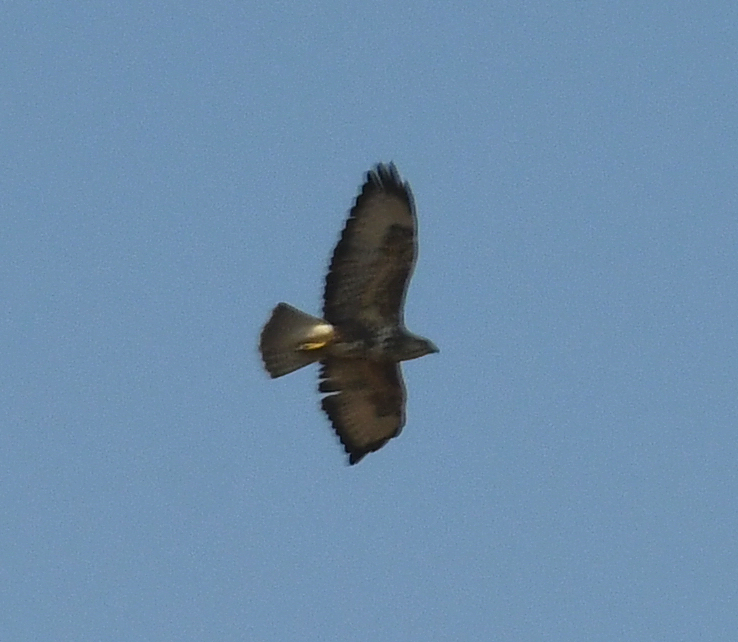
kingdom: Animalia
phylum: Chordata
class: Aves
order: Accipitriformes
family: Accipitridae
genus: Buteo
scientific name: Buteo buteo
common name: Common buzzard
